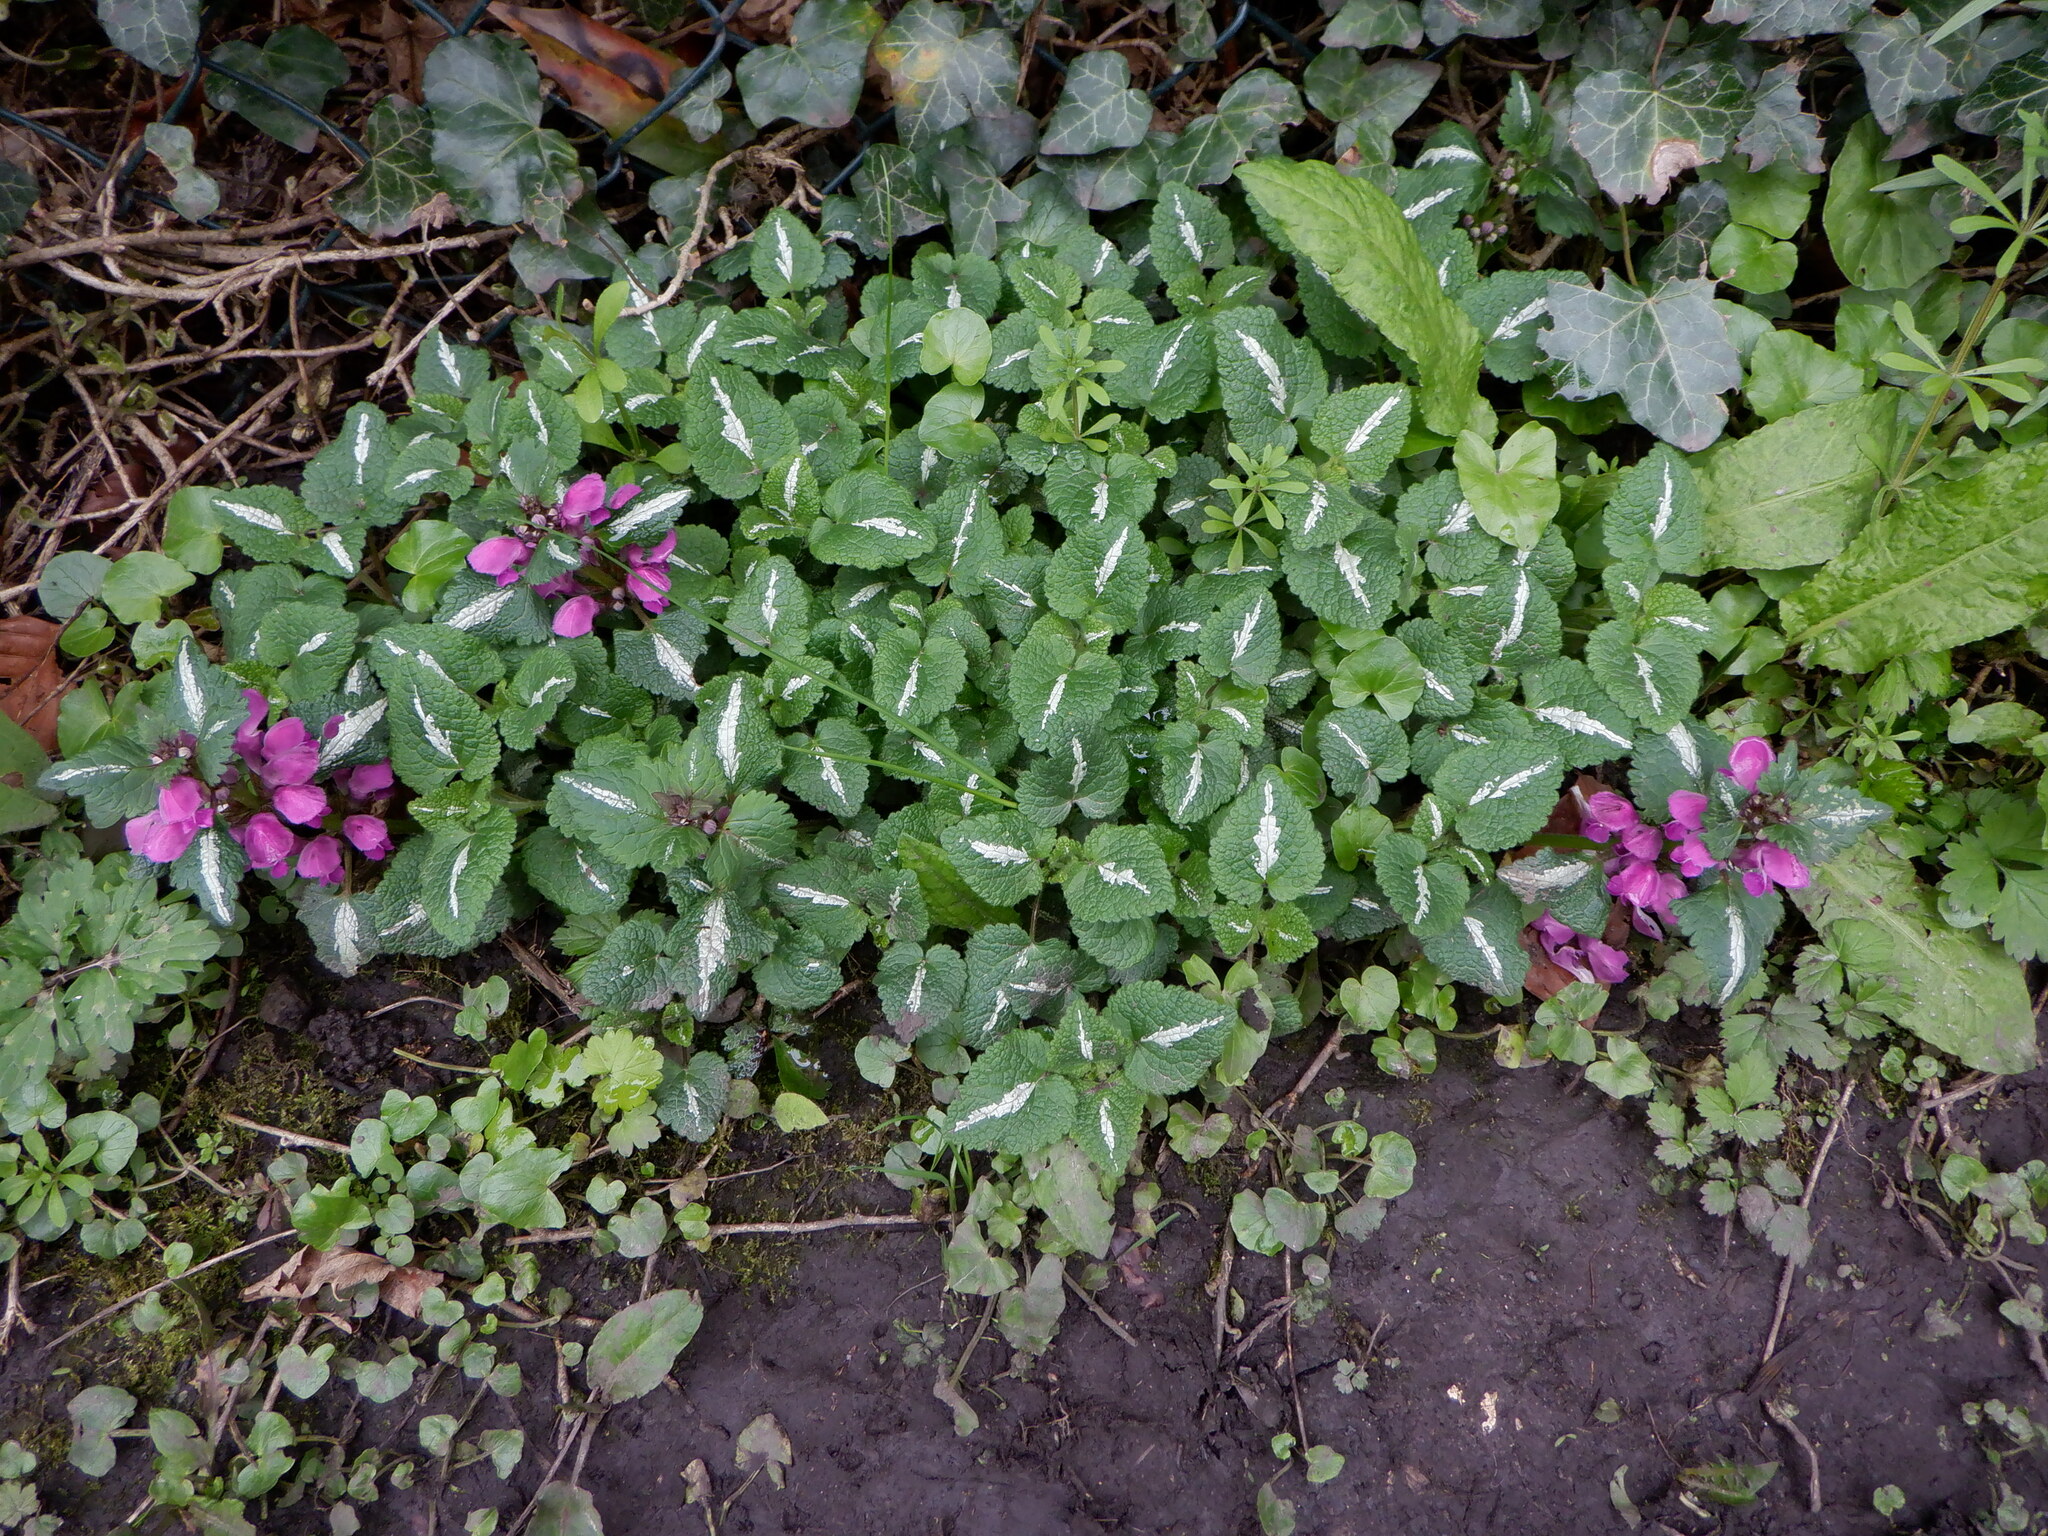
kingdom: Plantae
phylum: Tracheophyta
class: Magnoliopsida
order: Lamiales
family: Lamiaceae
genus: Lamium
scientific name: Lamium maculatum
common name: Spotted dead-nettle
